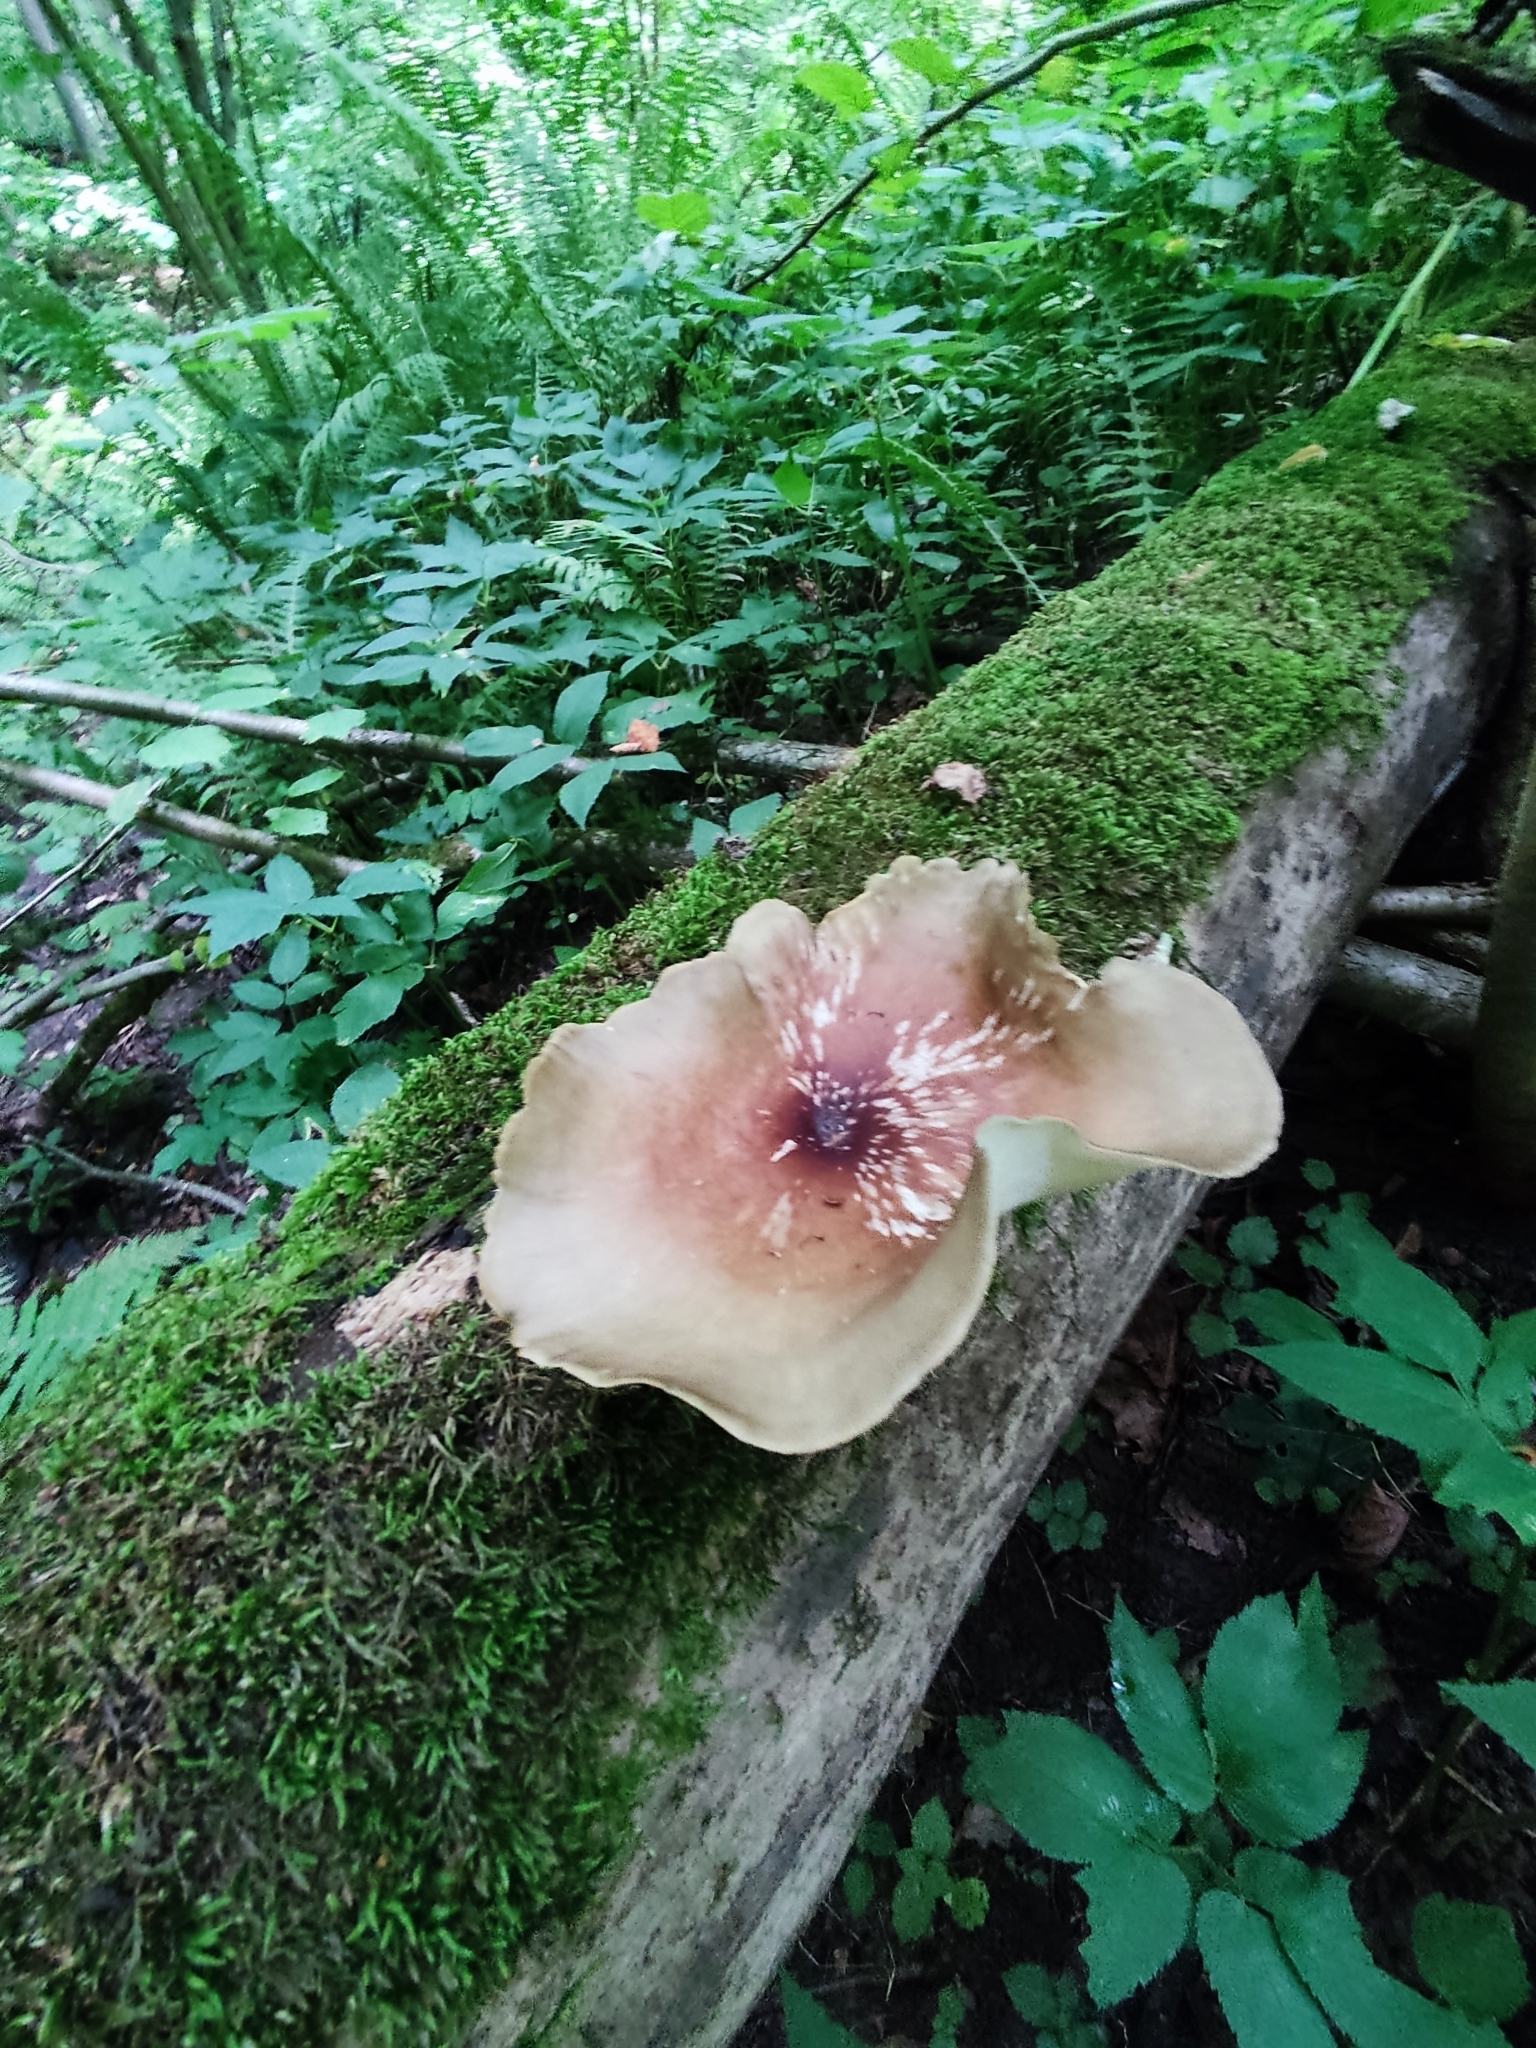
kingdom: Fungi
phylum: Basidiomycota
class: Agaricomycetes
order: Polyporales
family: Polyporaceae
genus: Picipes
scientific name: Picipes badius
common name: Bay polypore
